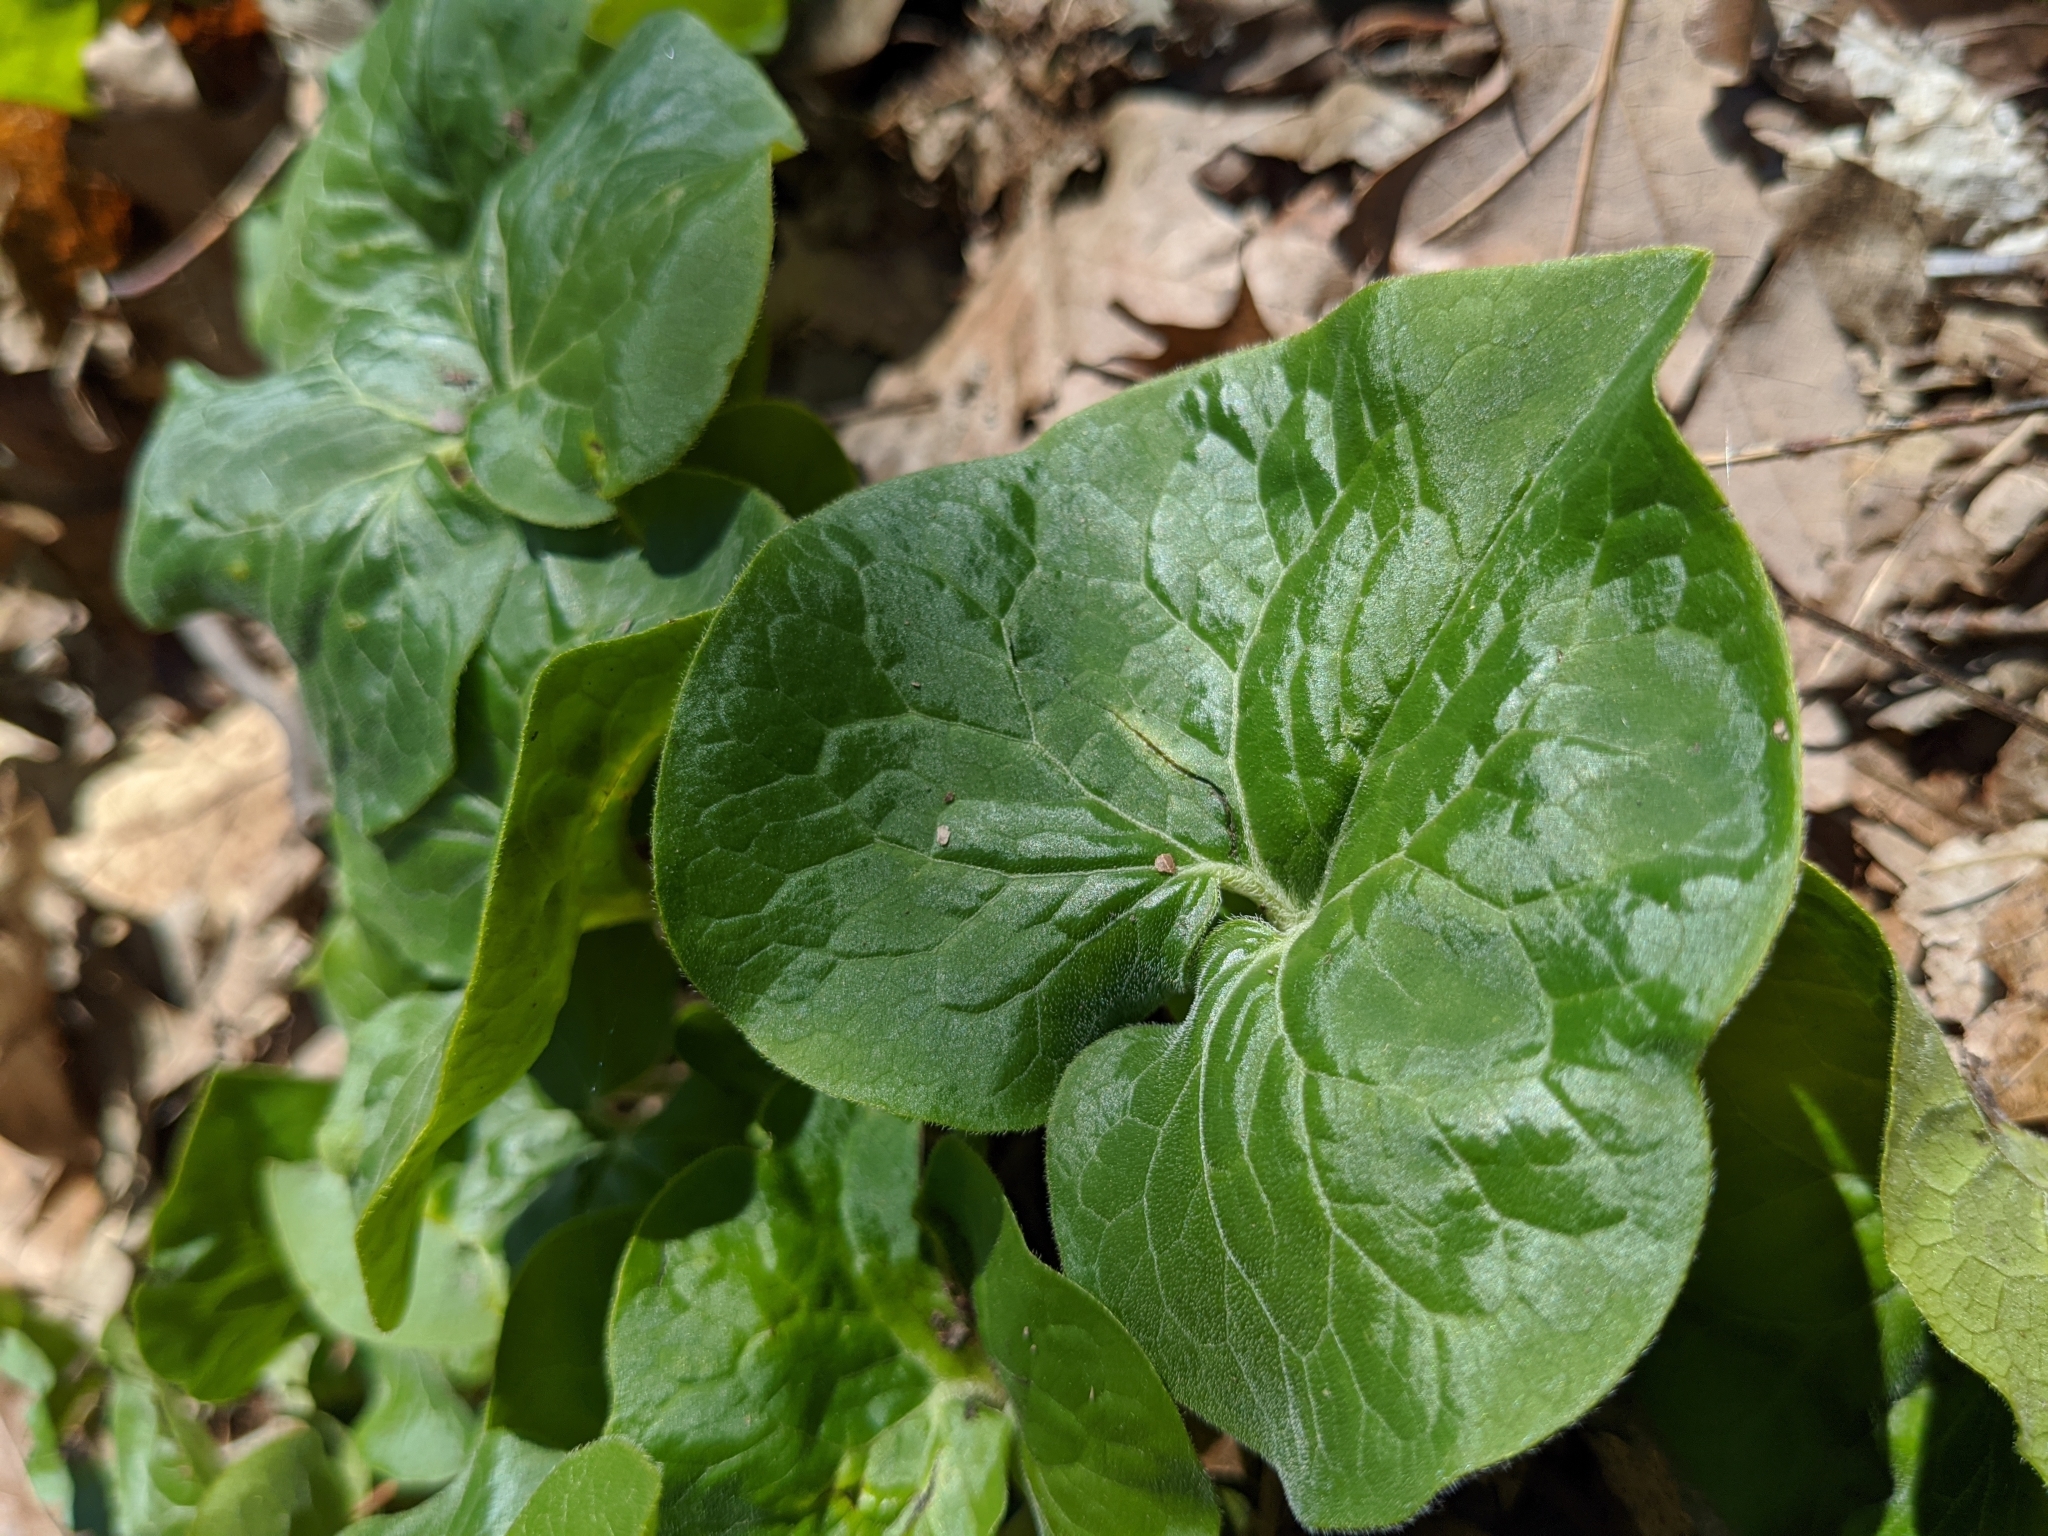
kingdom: Plantae
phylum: Tracheophyta
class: Magnoliopsida
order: Piperales
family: Aristolochiaceae
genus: Asarum
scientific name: Asarum canadense
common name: Wild ginger
